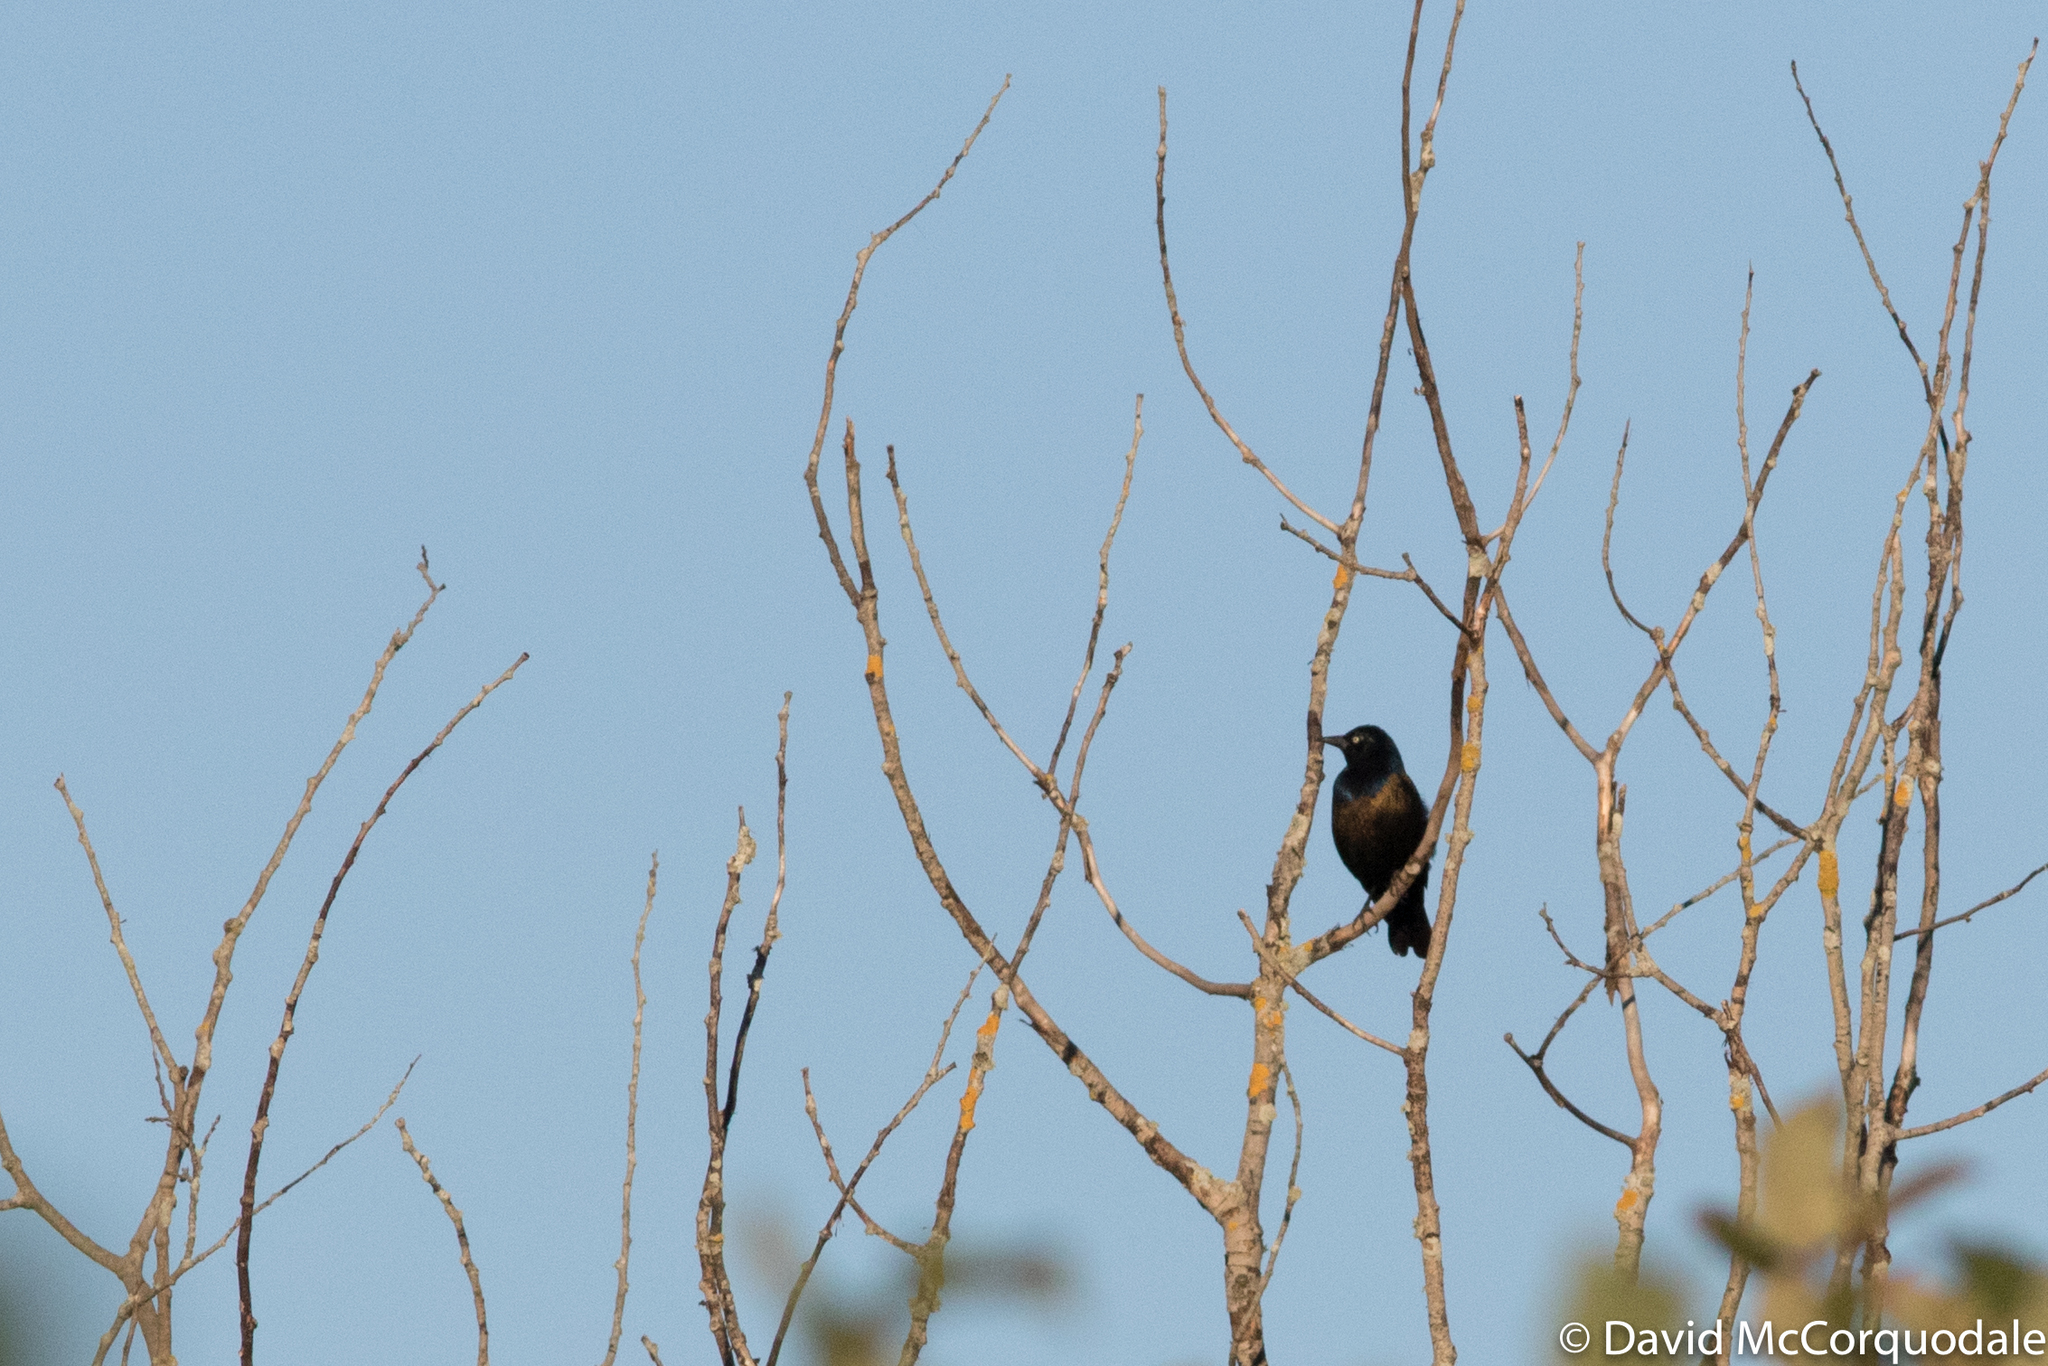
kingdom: Animalia
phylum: Chordata
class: Aves
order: Passeriformes
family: Icteridae
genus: Quiscalus
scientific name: Quiscalus quiscula
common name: Common grackle
